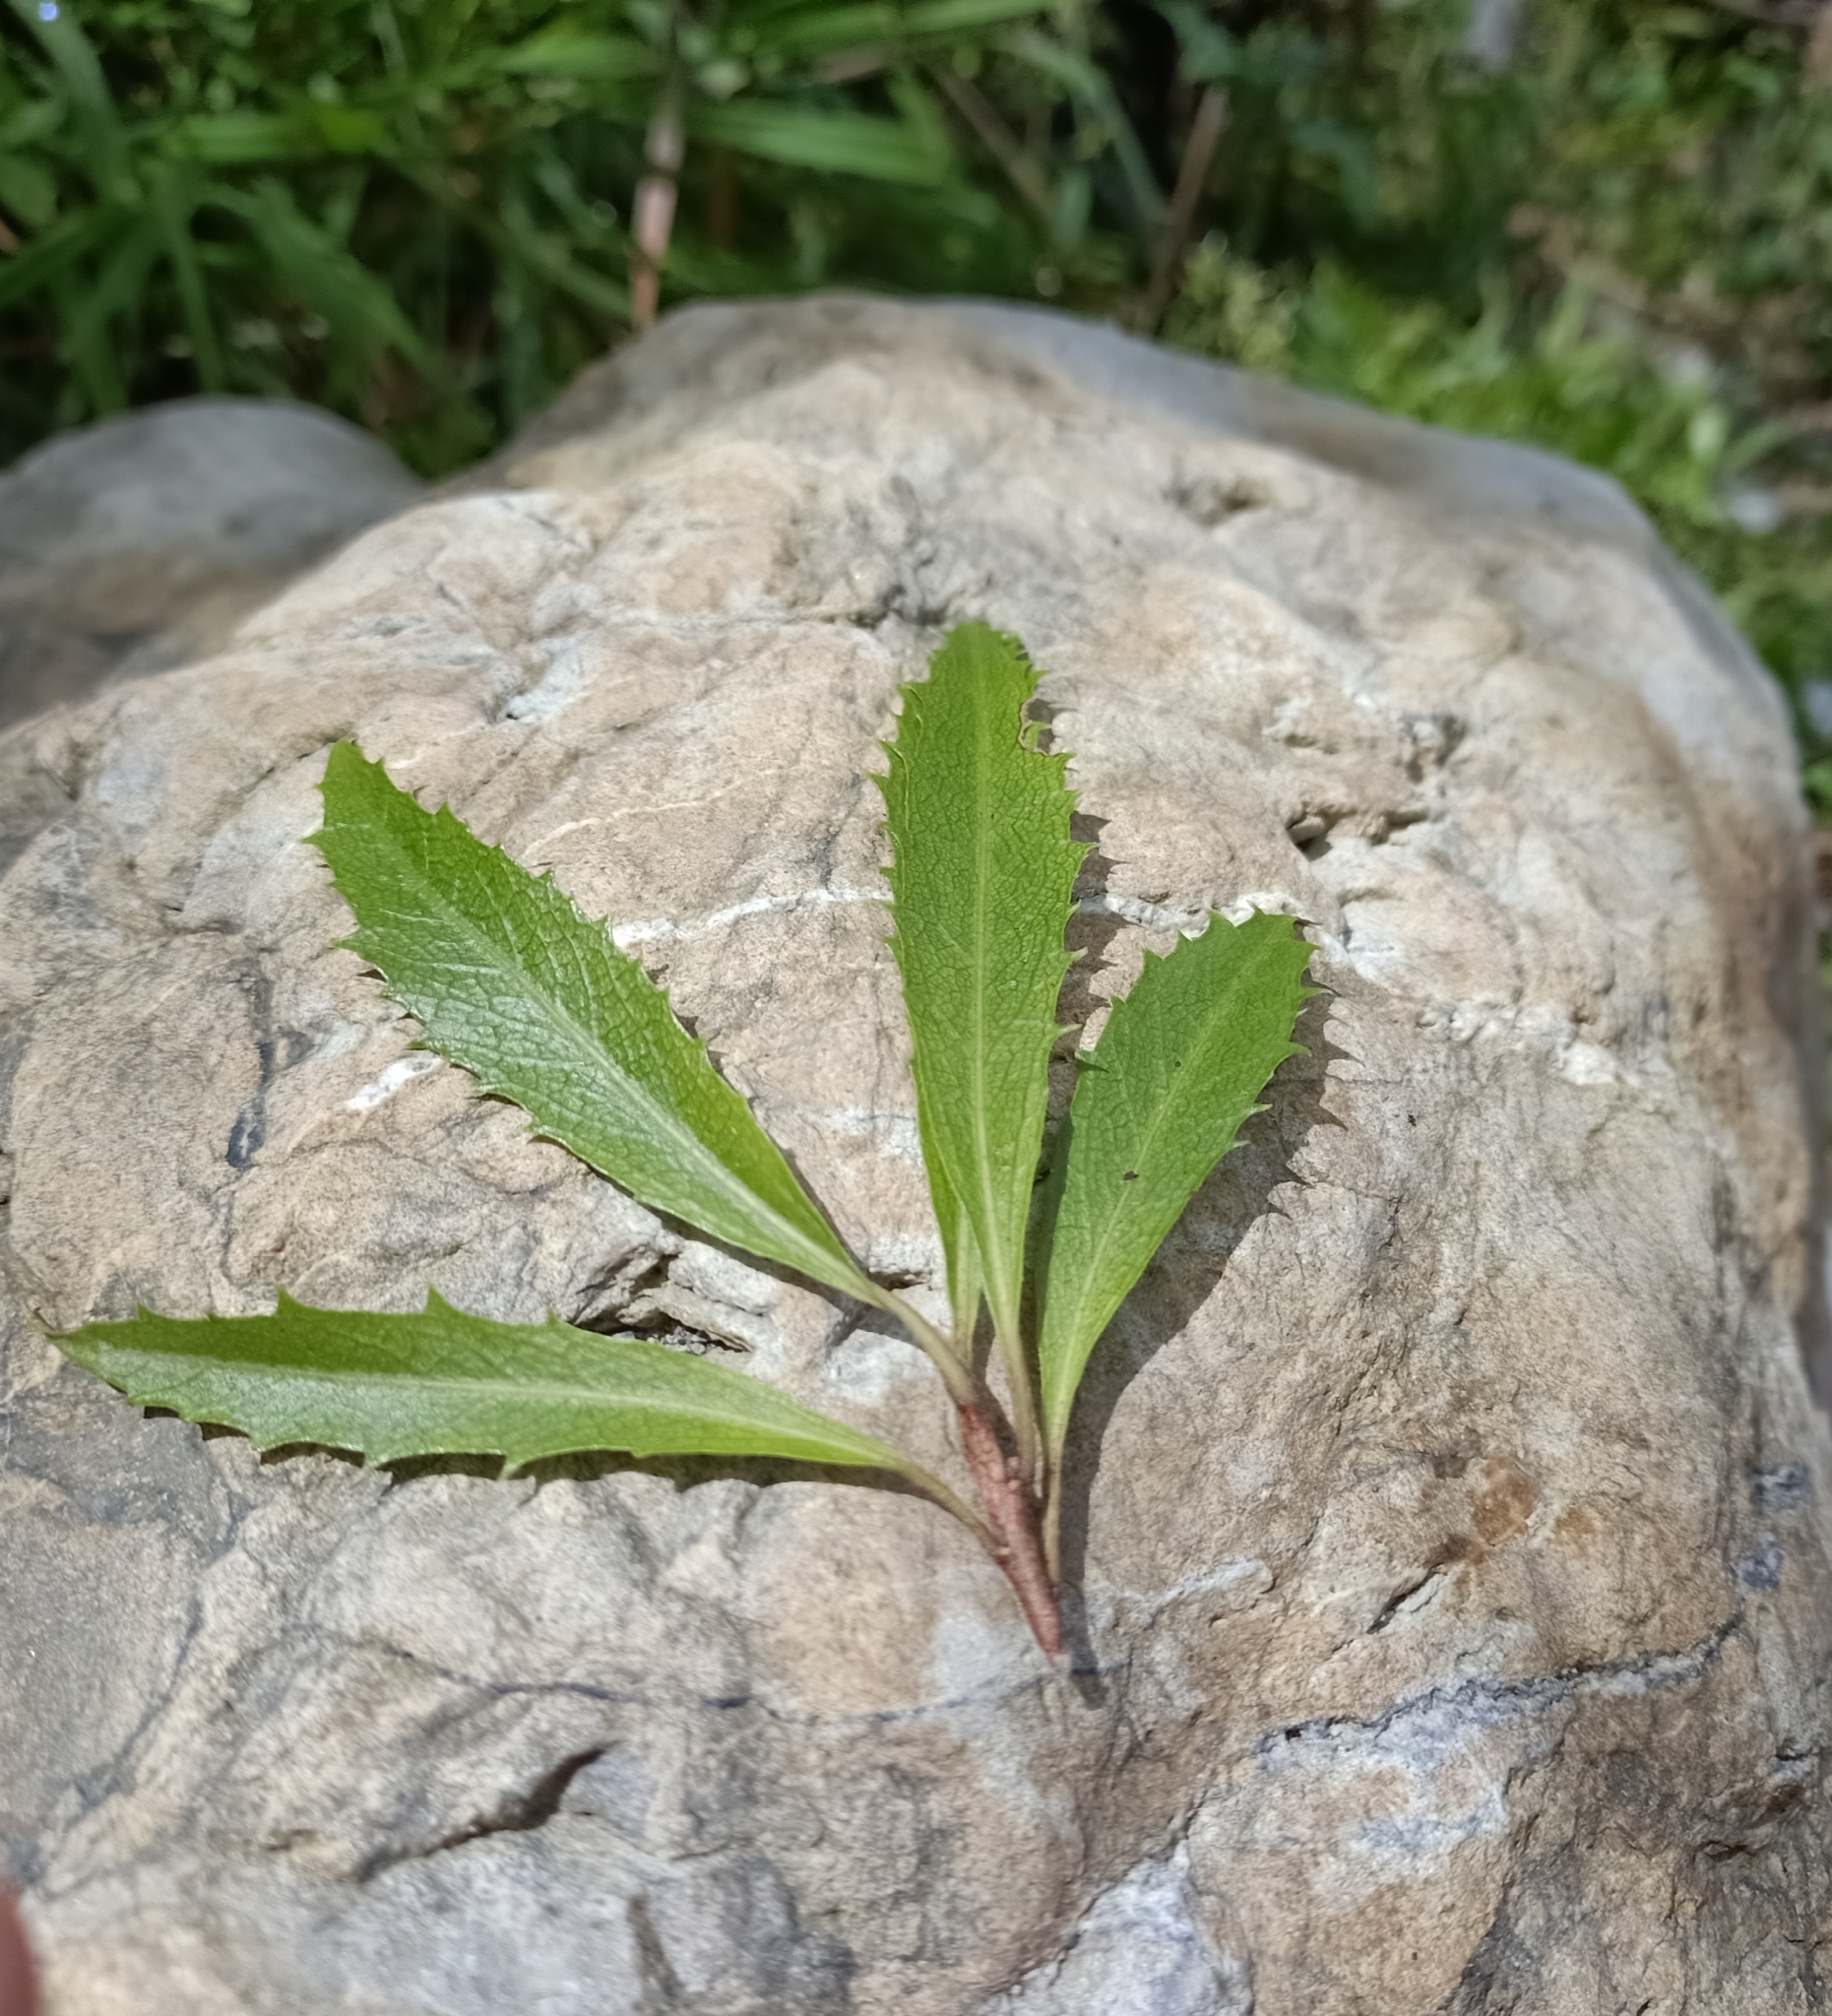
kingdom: Plantae
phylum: Tracheophyta
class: Magnoliopsida
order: Malvales
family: Malvaceae
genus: Hoheria
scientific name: Hoheria angustifolia
